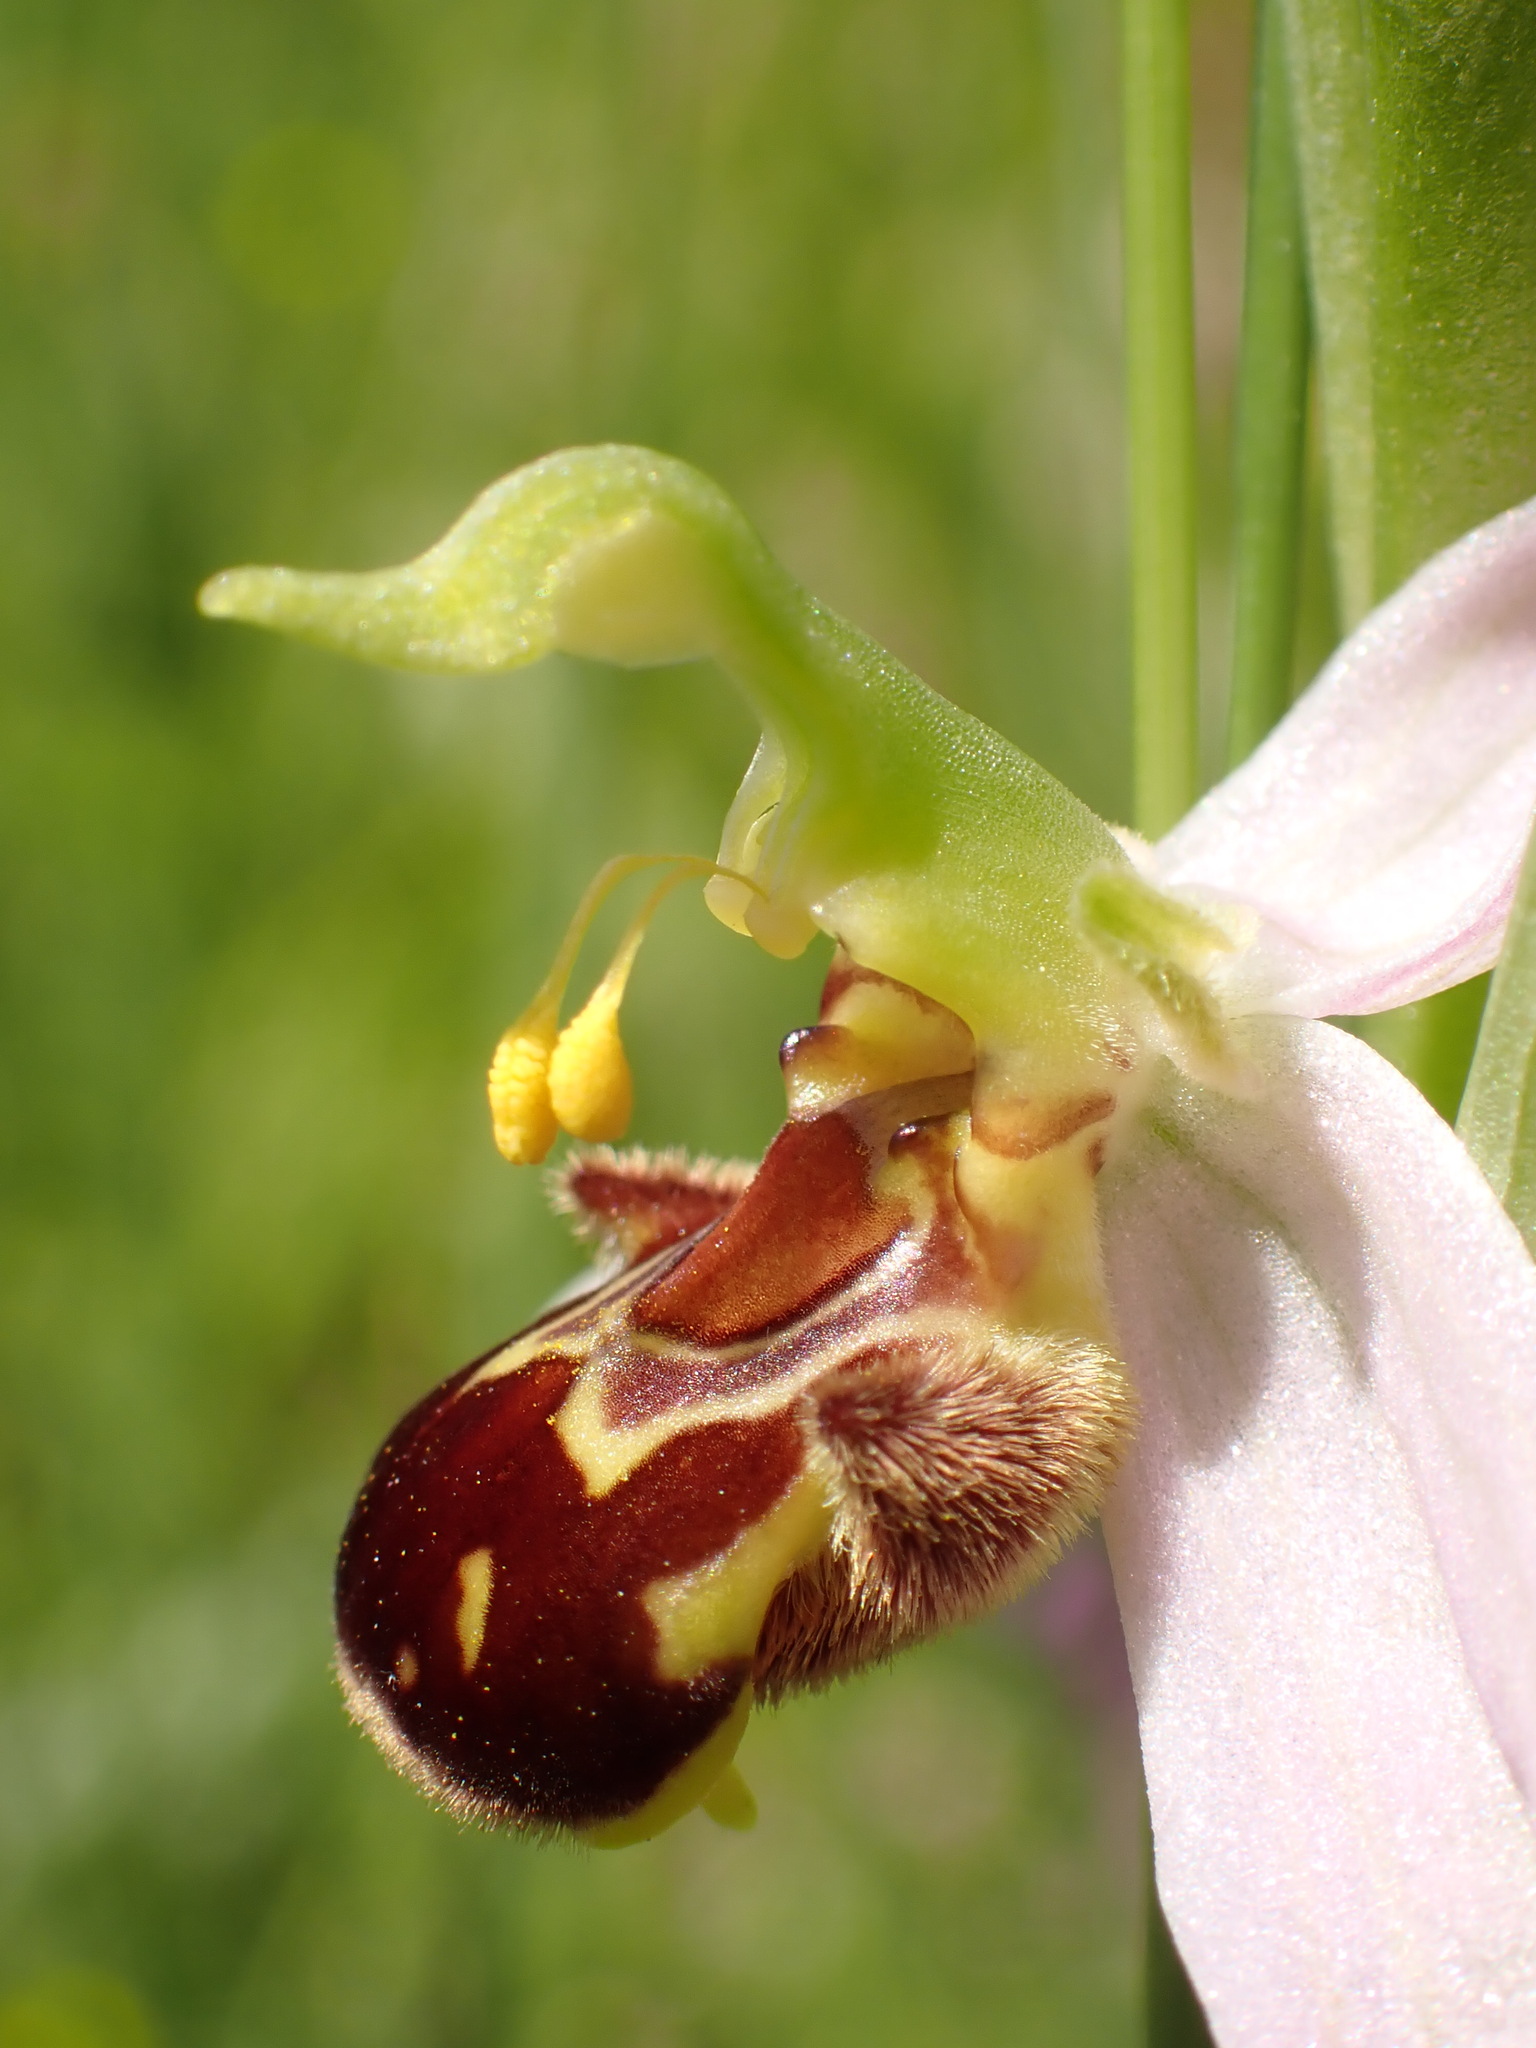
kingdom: Plantae
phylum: Tracheophyta
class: Liliopsida
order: Asparagales
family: Orchidaceae
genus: Ophrys
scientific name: Ophrys apifera
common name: Bee orchid
